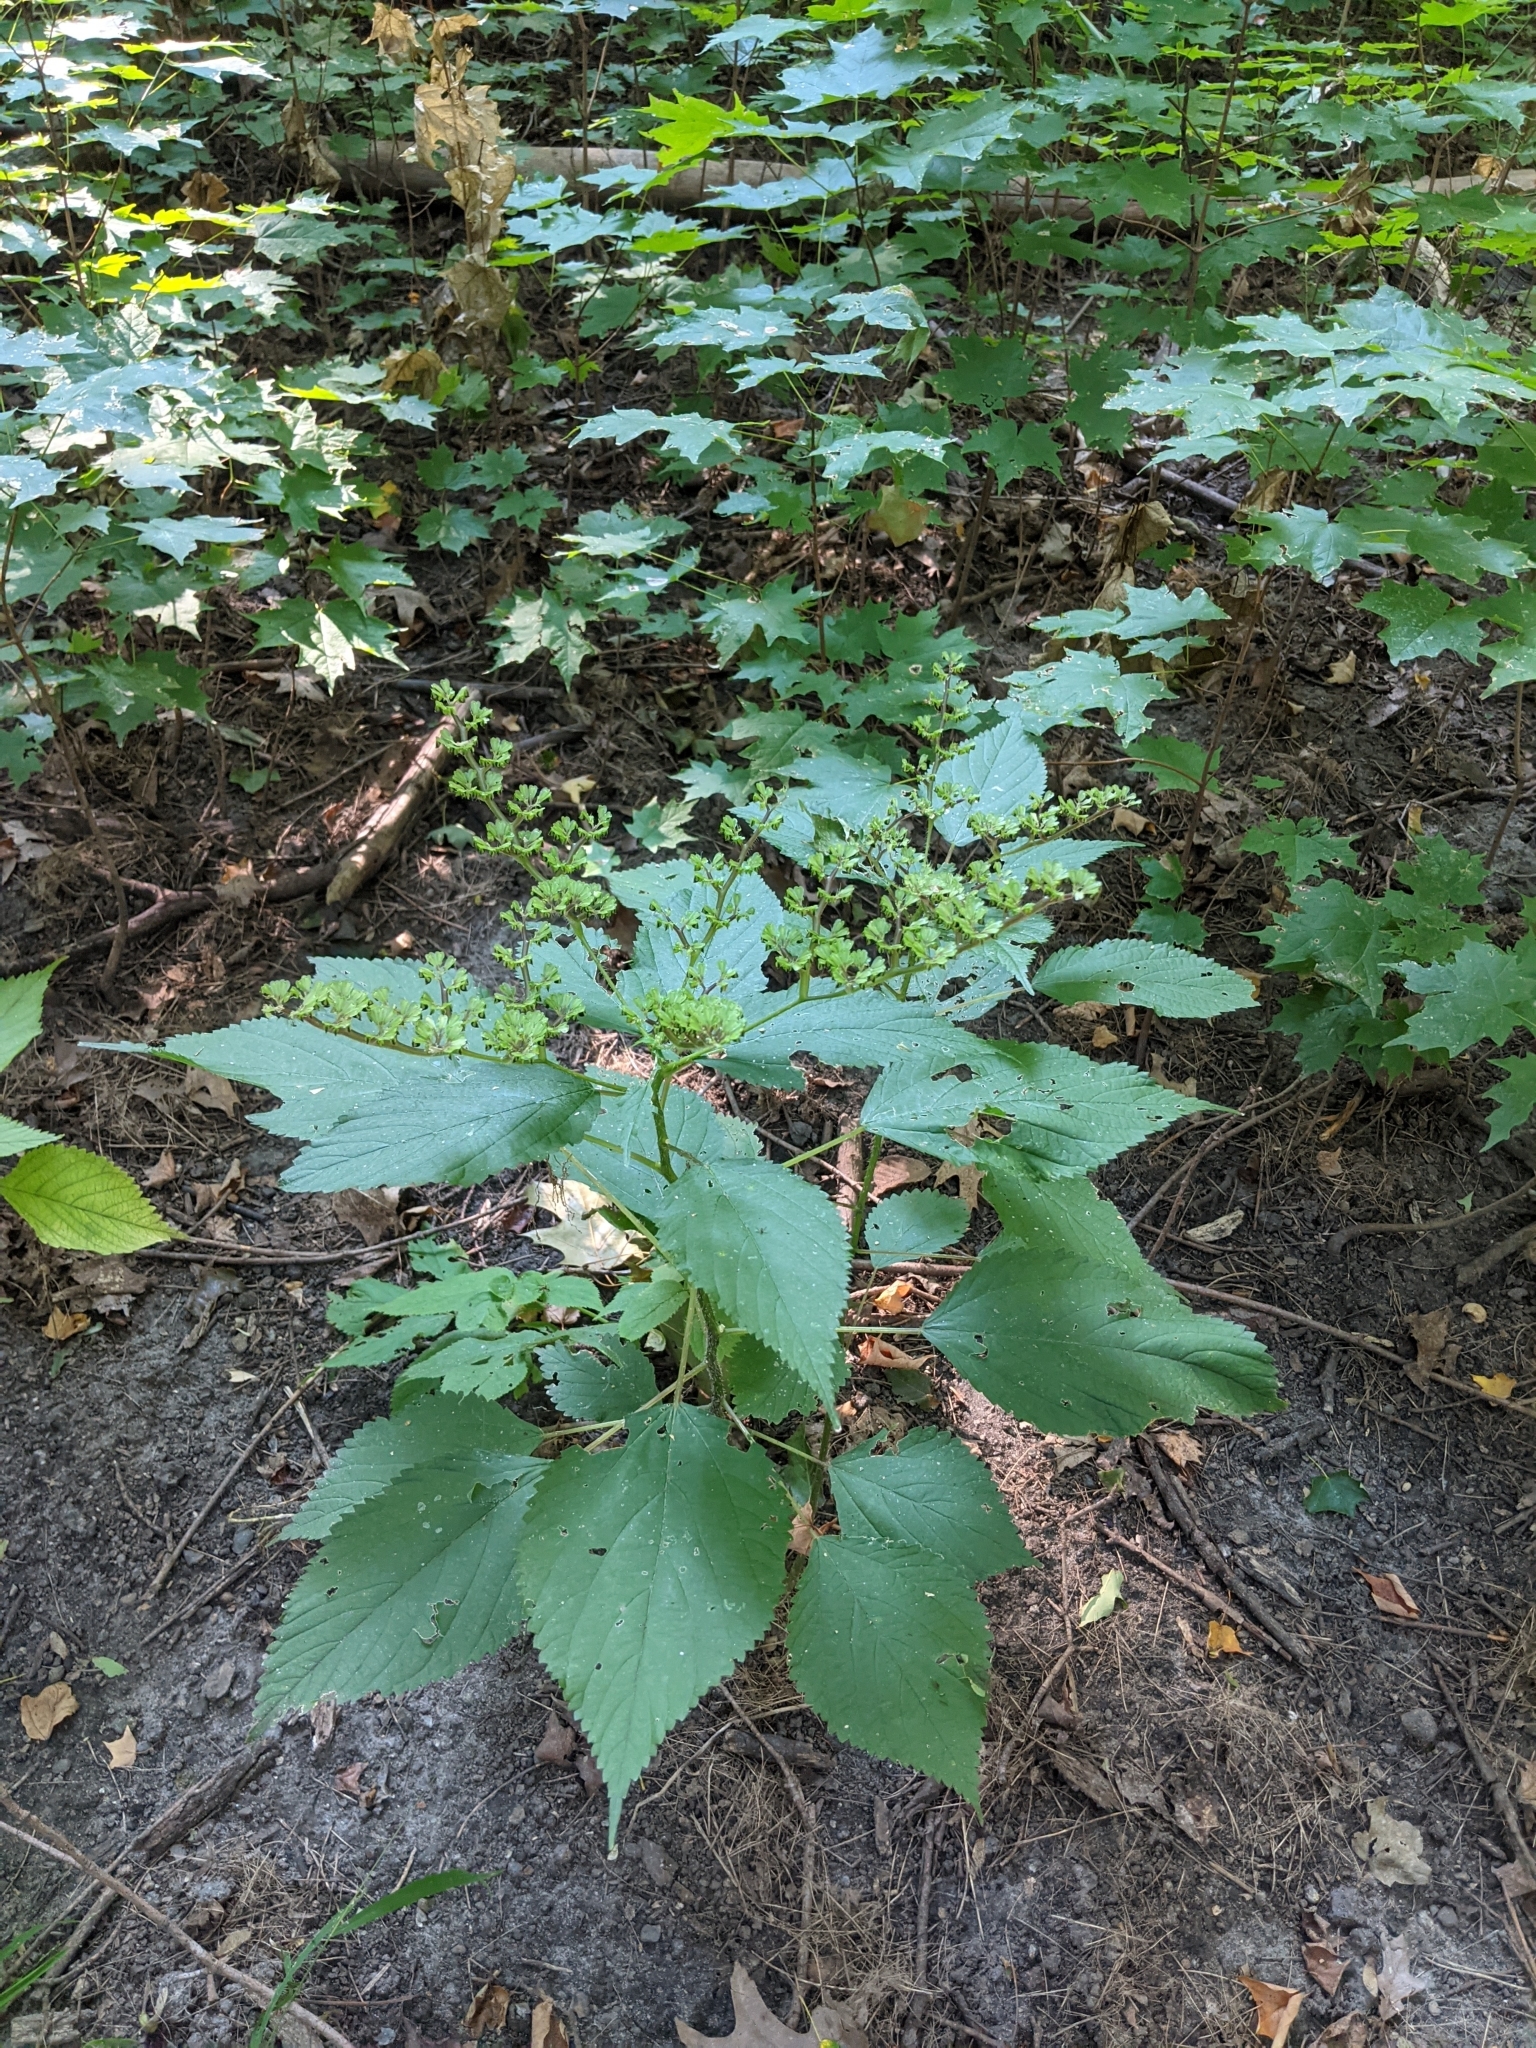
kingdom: Plantae
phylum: Tracheophyta
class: Magnoliopsida
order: Rosales
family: Urticaceae
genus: Laportea
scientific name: Laportea canadensis
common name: Canada nettle
